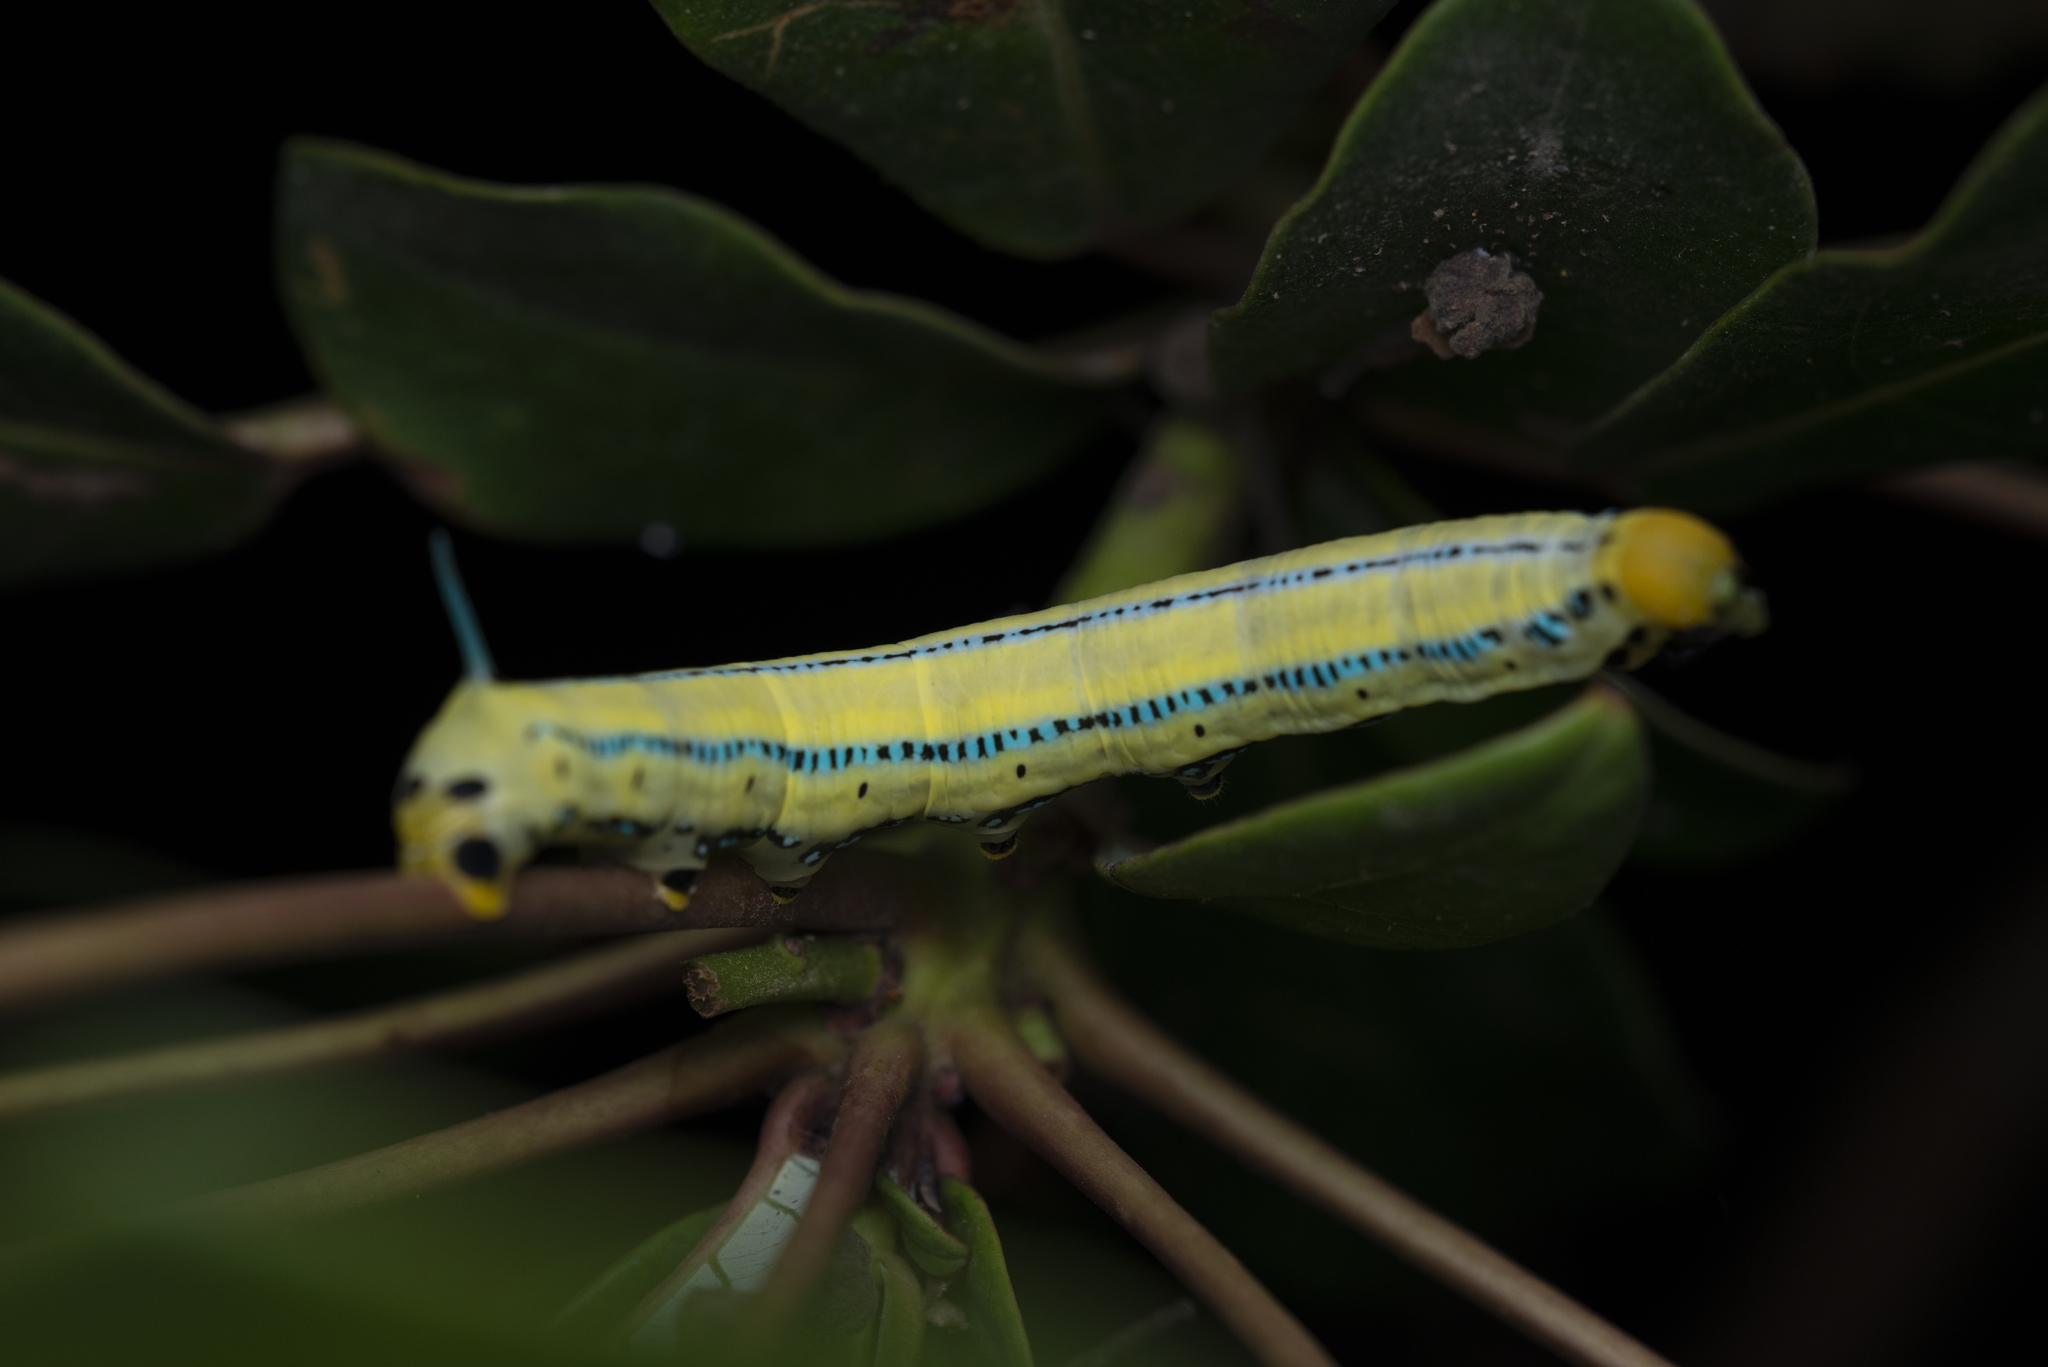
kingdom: Animalia
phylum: Arthropoda
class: Insecta
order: Lepidoptera
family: Sphingidae
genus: Macroglossum
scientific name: Macroglossum passalus
